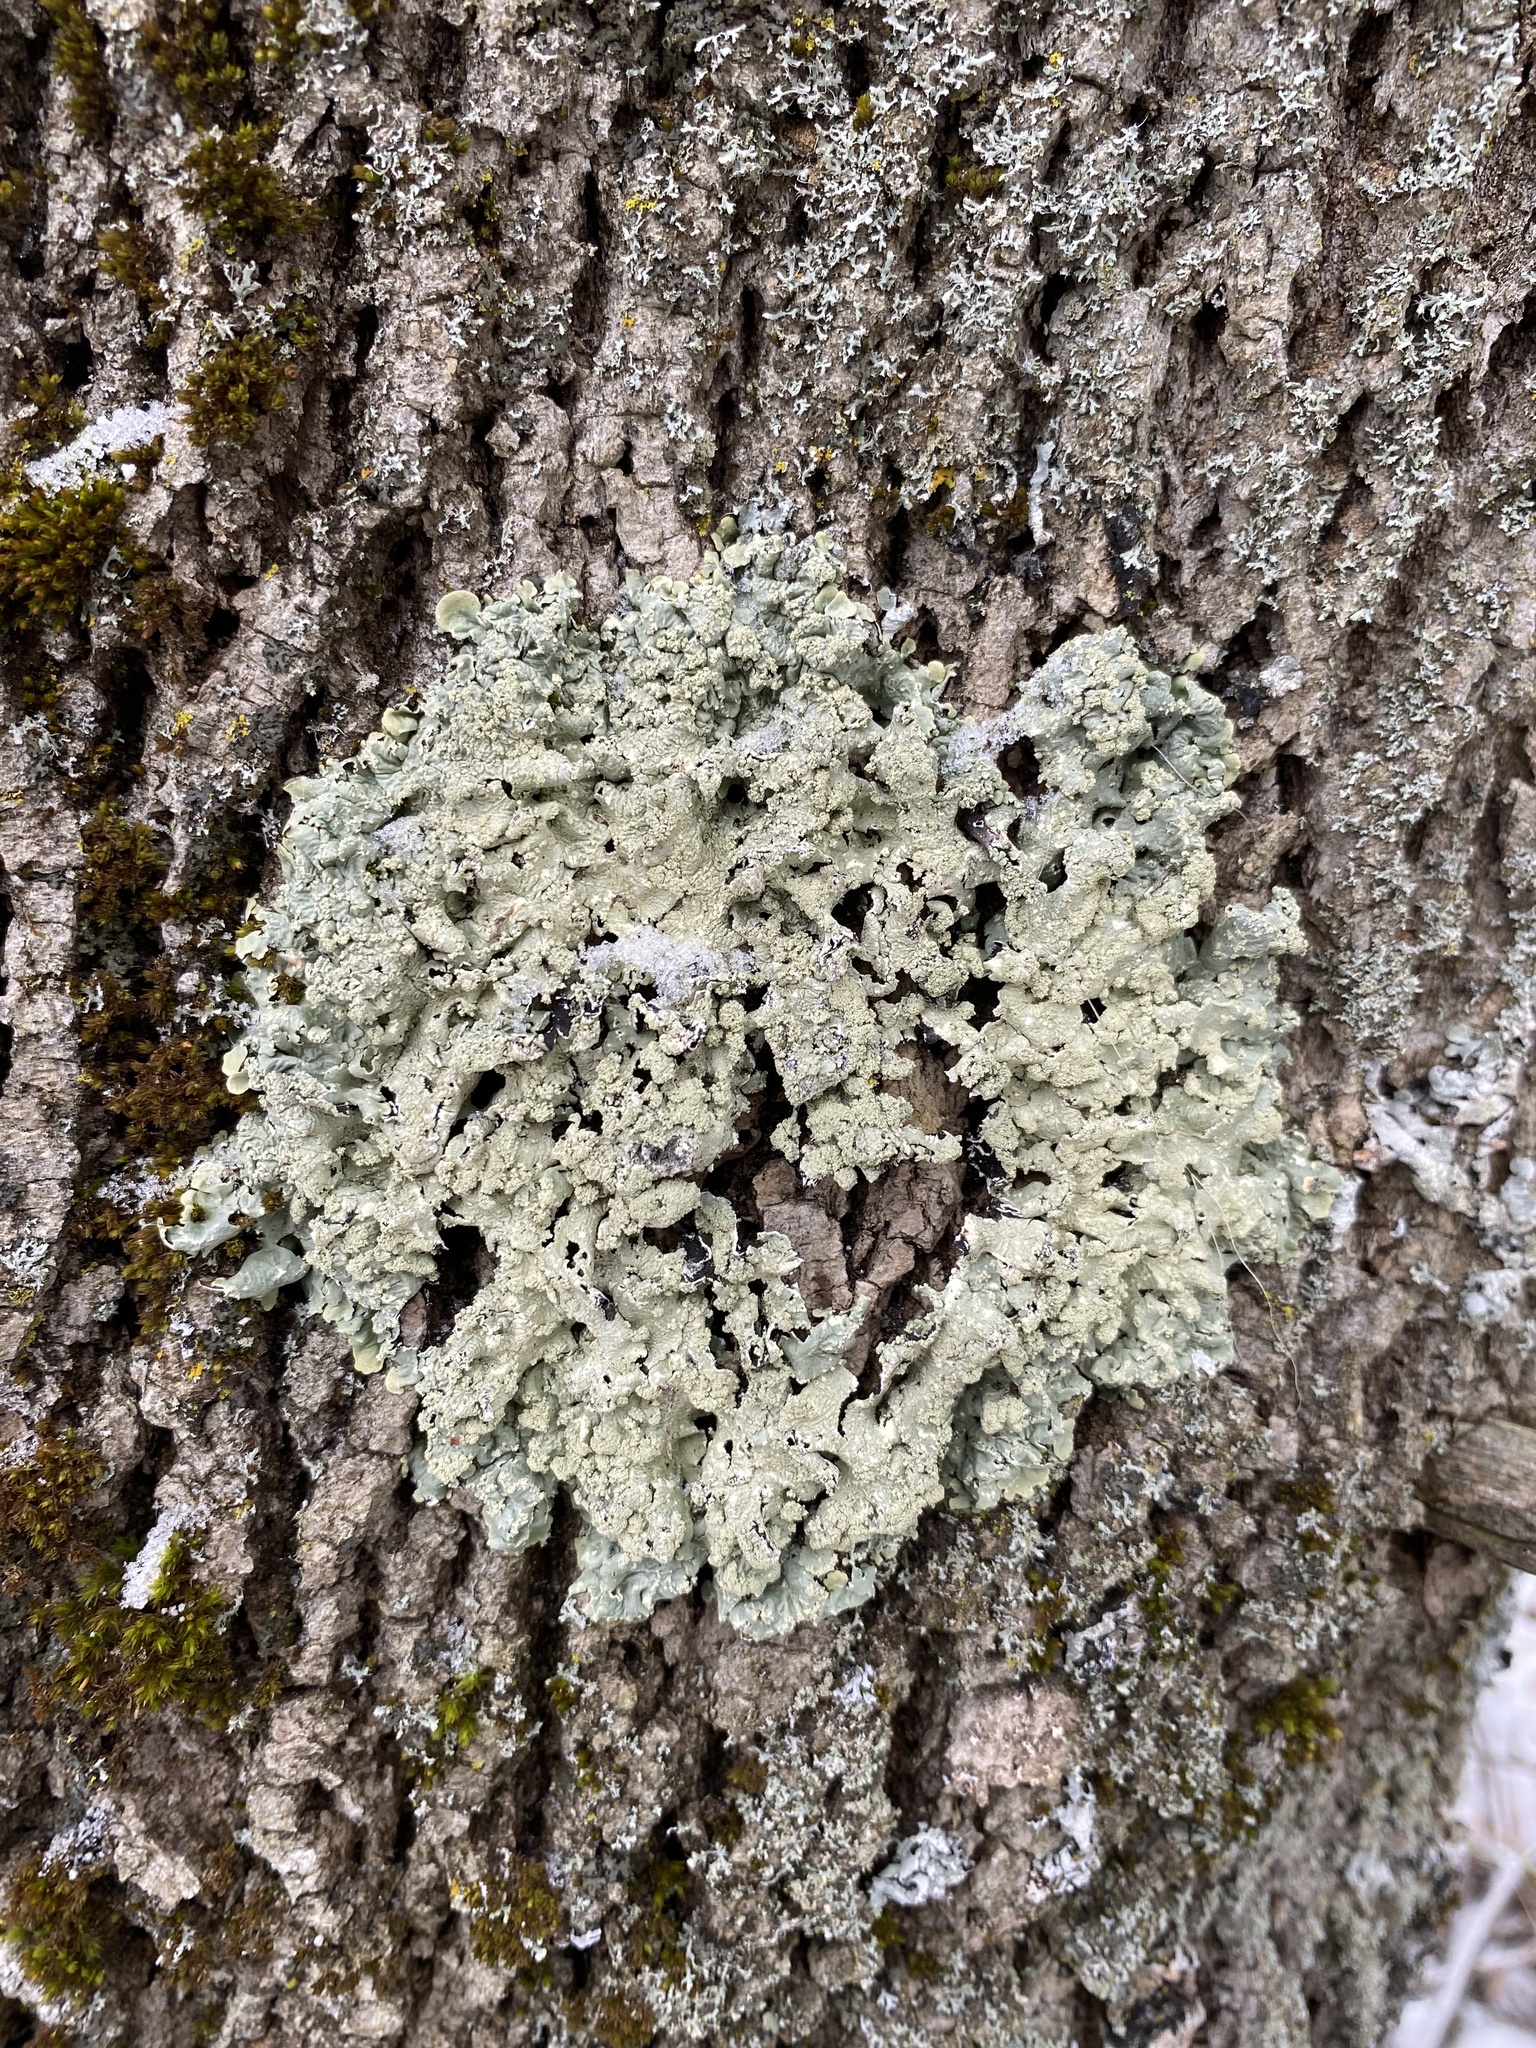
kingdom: Fungi
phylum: Ascomycota
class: Lecanoromycetes
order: Lecanorales
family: Parmeliaceae
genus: Flavopunctelia
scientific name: Flavopunctelia flaventior
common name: Speckled greenshield
